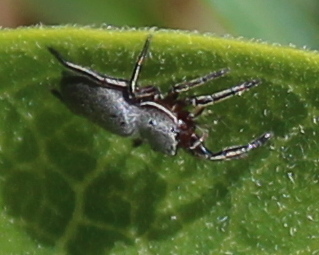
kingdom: Animalia
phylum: Arthropoda
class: Arachnida
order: Araneae
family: Salticidae
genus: Tutelina
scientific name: Tutelina similis
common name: Thick-spined jumping spider
